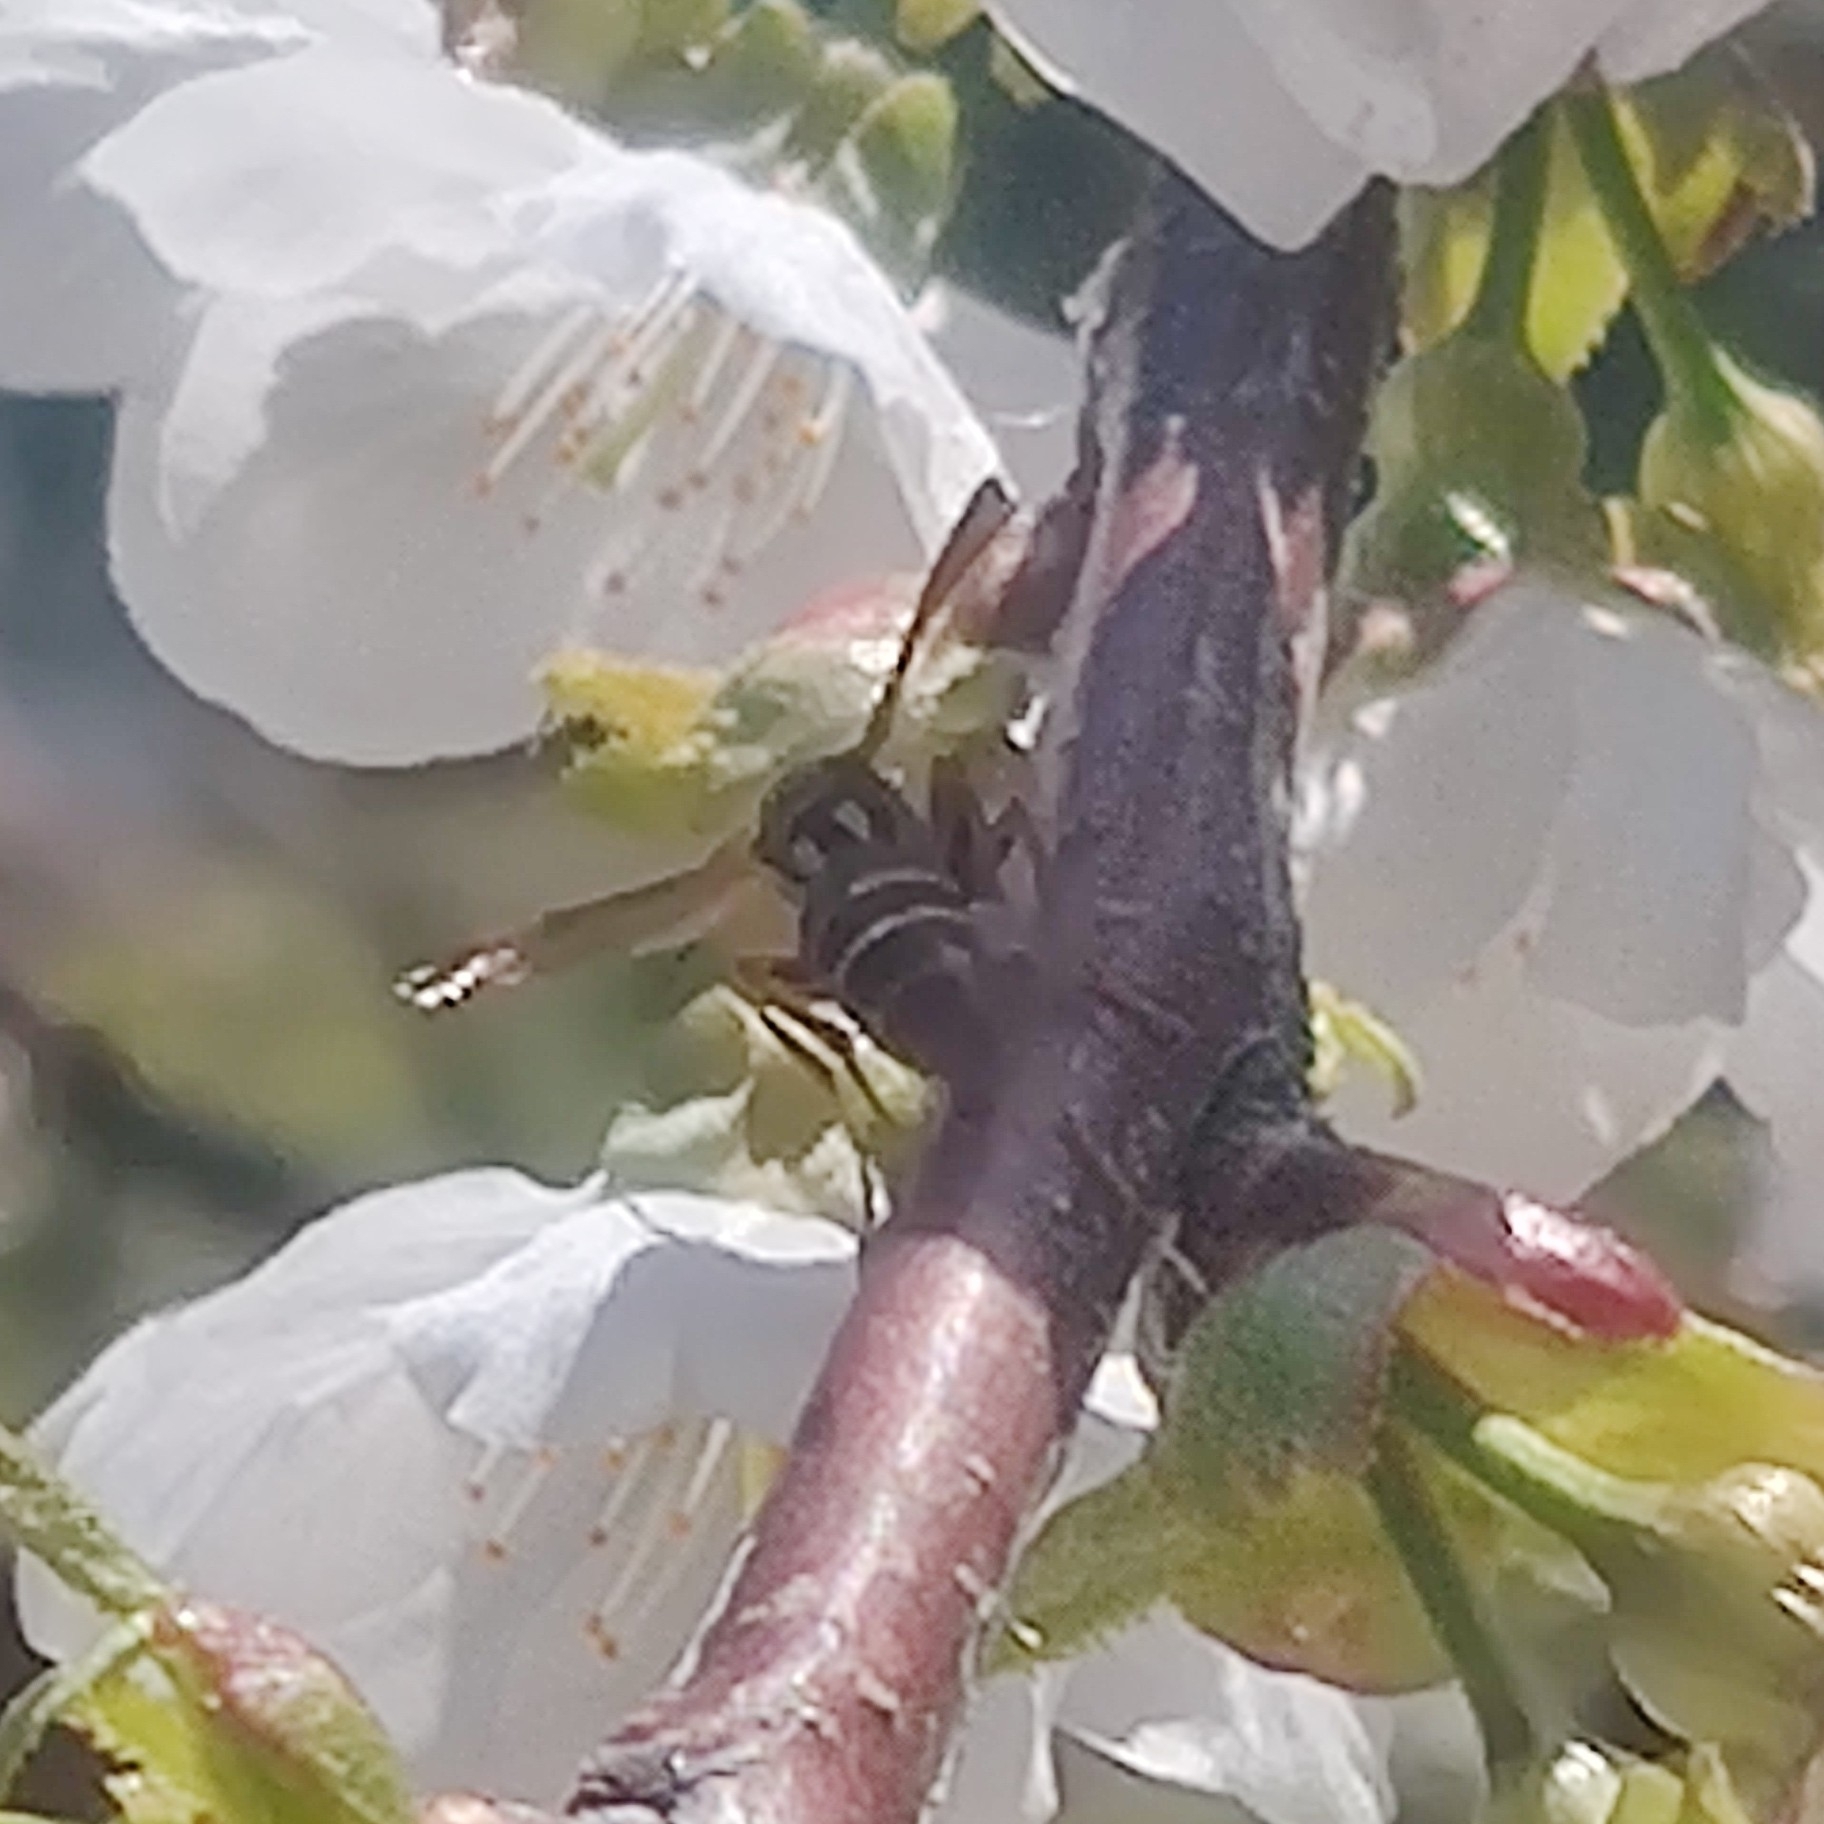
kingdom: Animalia
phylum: Arthropoda
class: Insecta
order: Hymenoptera
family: Eumenidae
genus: Knemodynerus
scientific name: Knemodynerus multimaculatus
